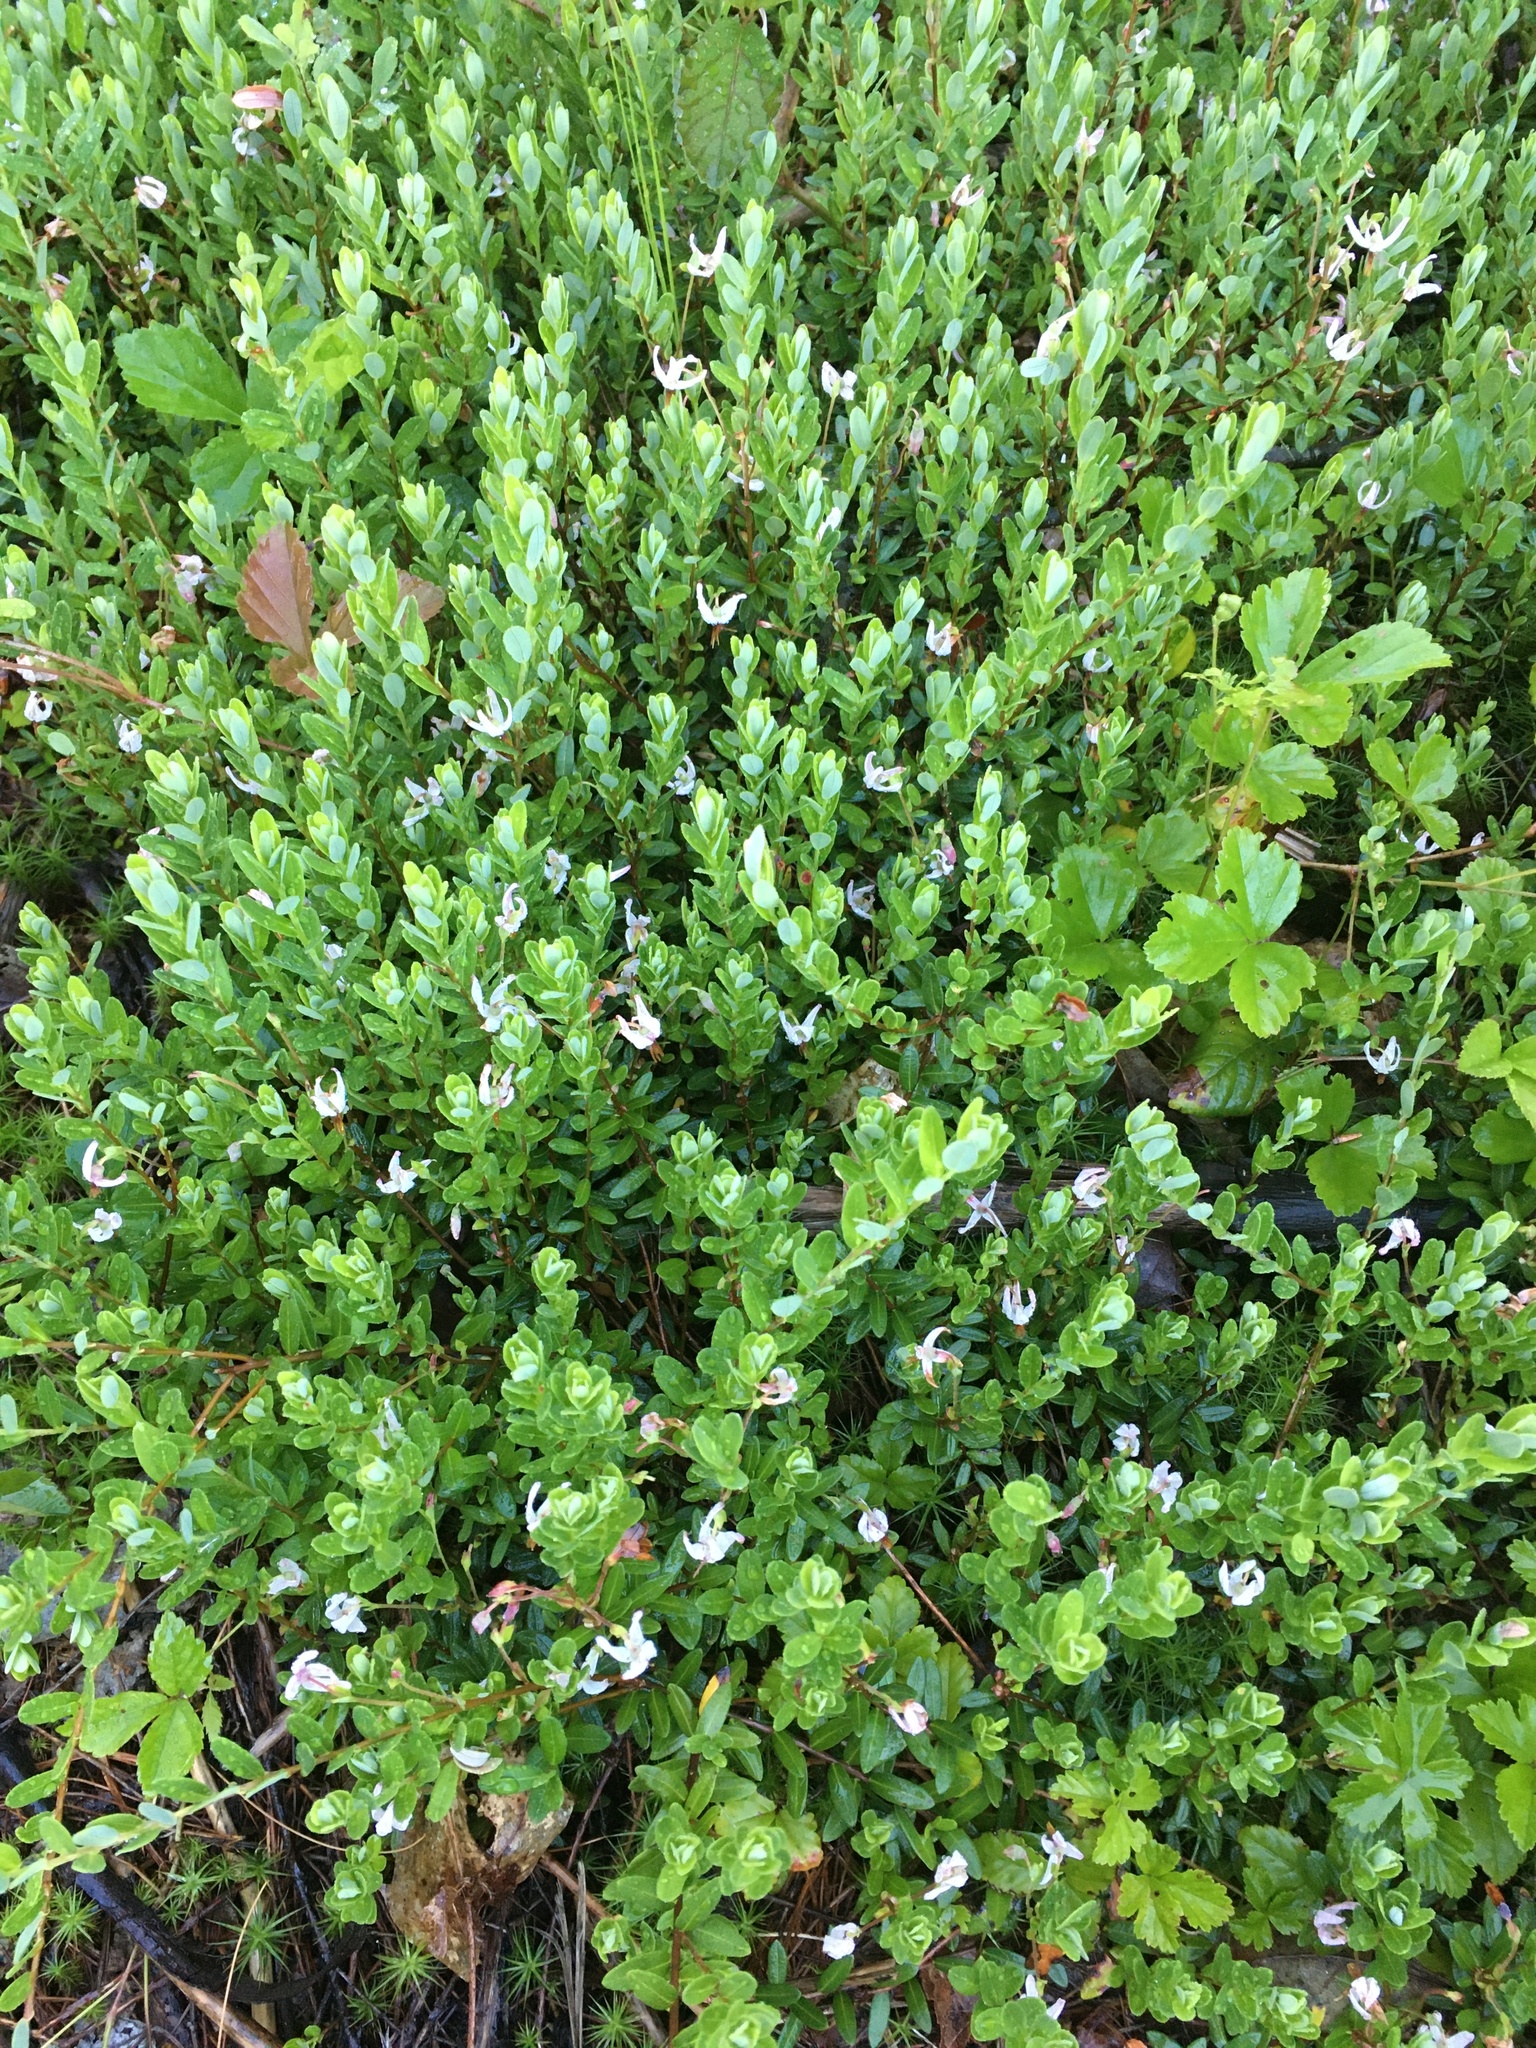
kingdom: Plantae
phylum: Tracheophyta
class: Magnoliopsida
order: Ericales
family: Ericaceae
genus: Vaccinium
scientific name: Vaccinium macrocarpon
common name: American cranberry
